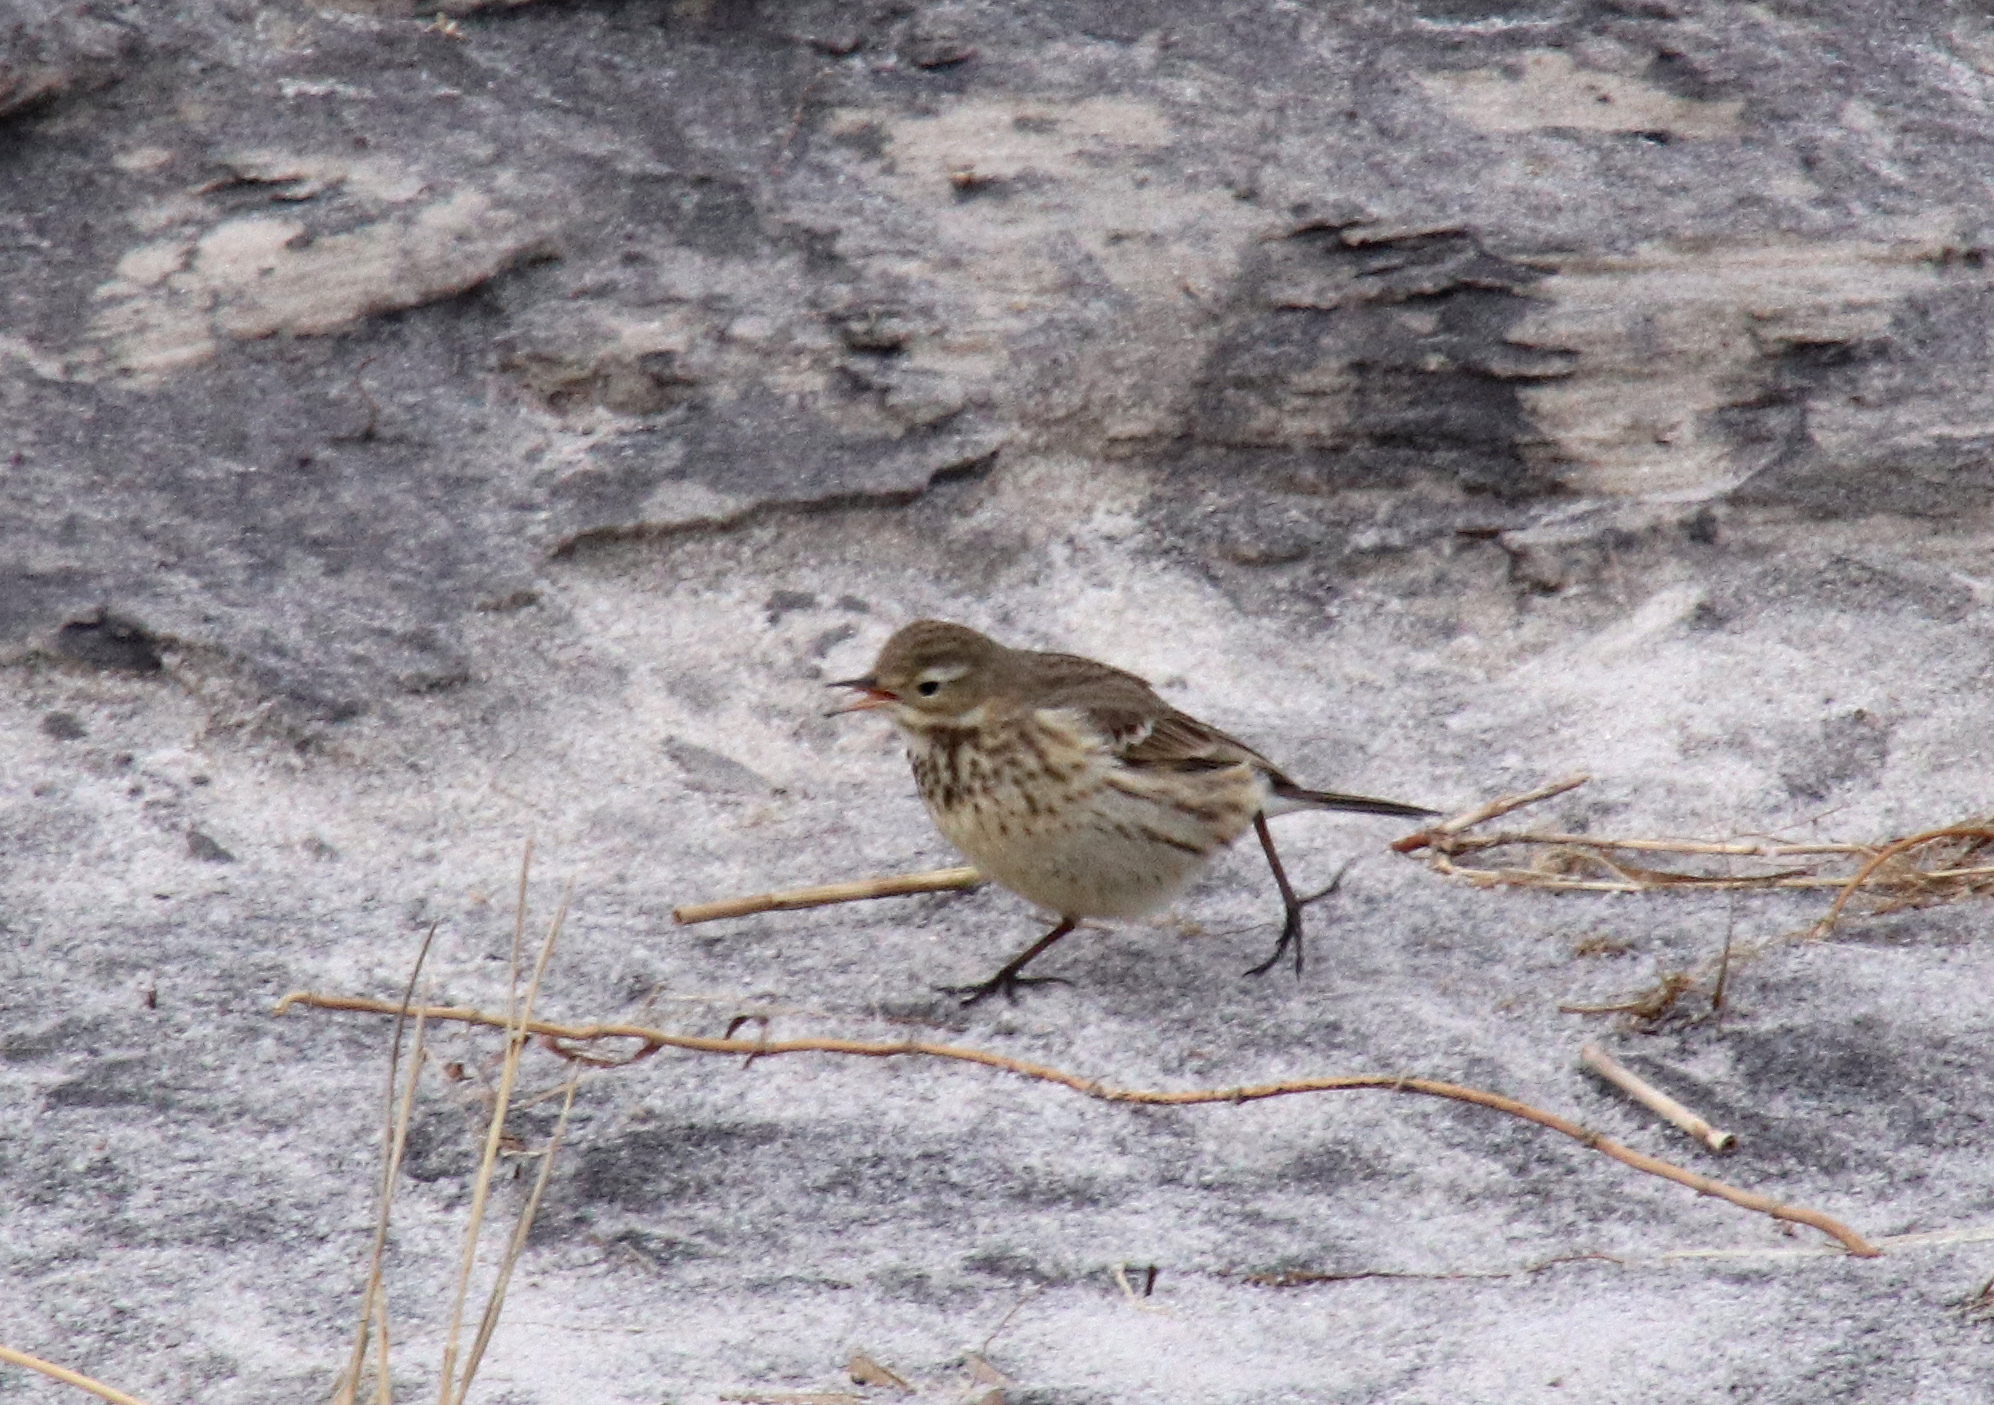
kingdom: Animalia
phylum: Chordata
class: Aves
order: Passeriformes
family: Motacillidae
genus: Anthus
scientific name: Anthus rubescens
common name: Buff-bellied pipit
